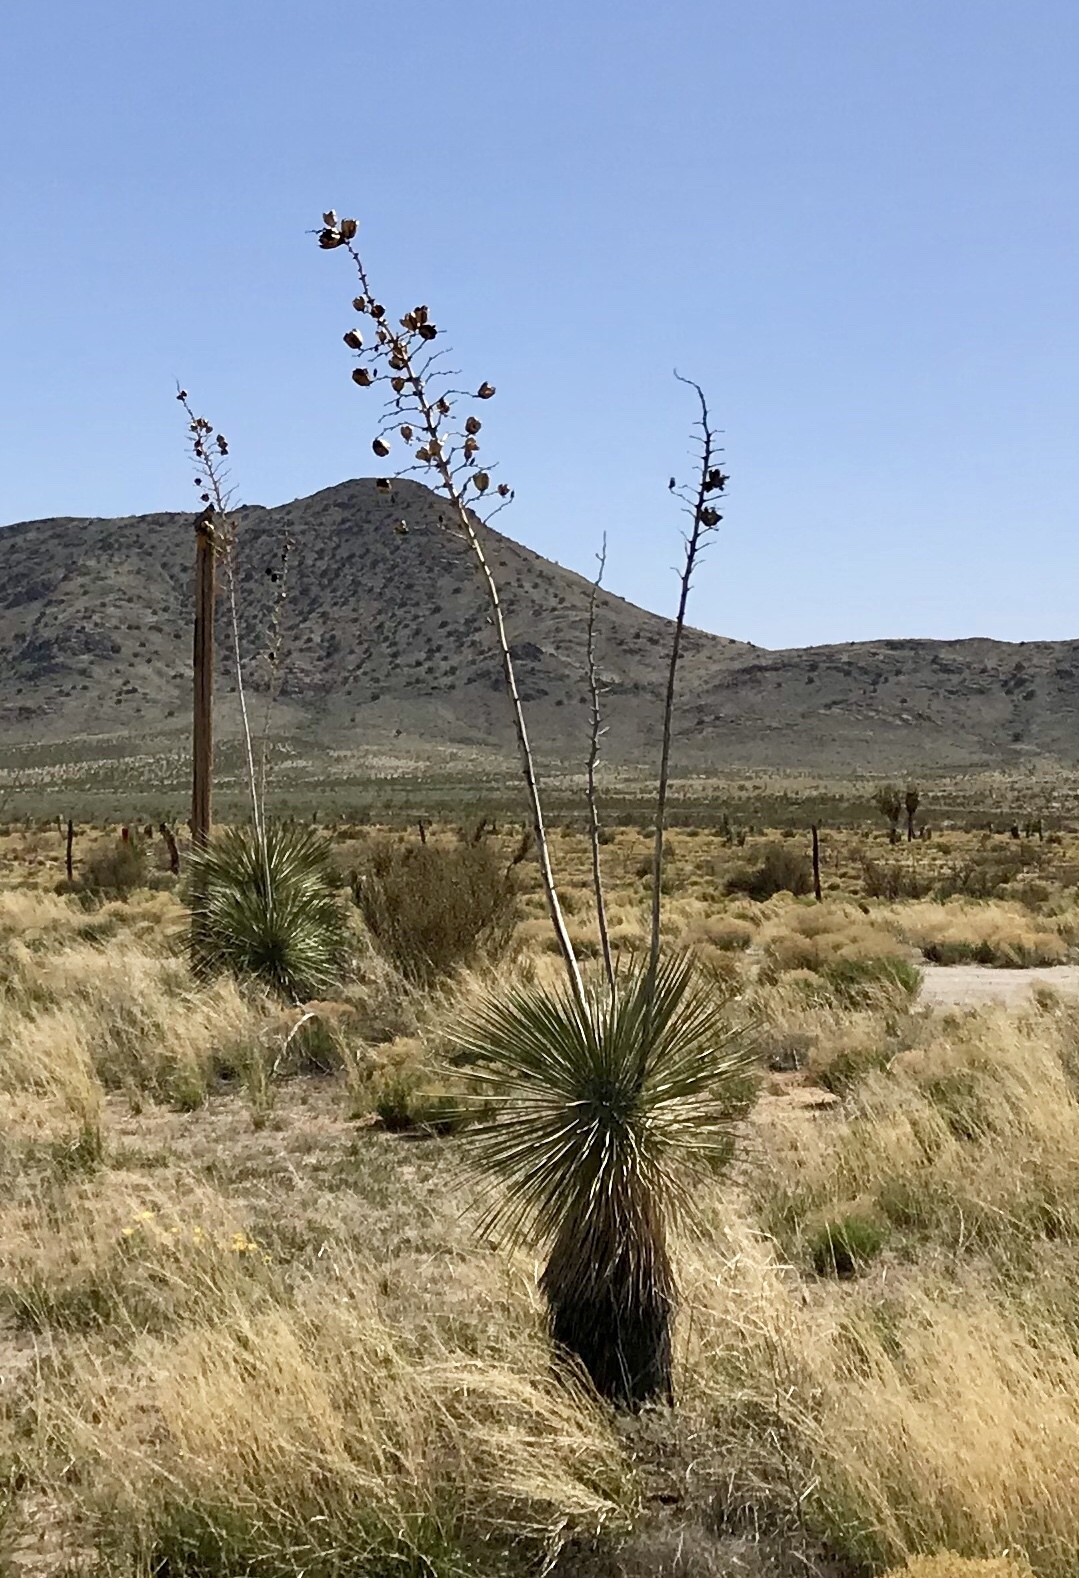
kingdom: Plantae
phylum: Tracheophyta
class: Liliopsida
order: Asparagales
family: Asparagaceae
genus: Yucca
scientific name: Yucca elata
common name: Palmella
